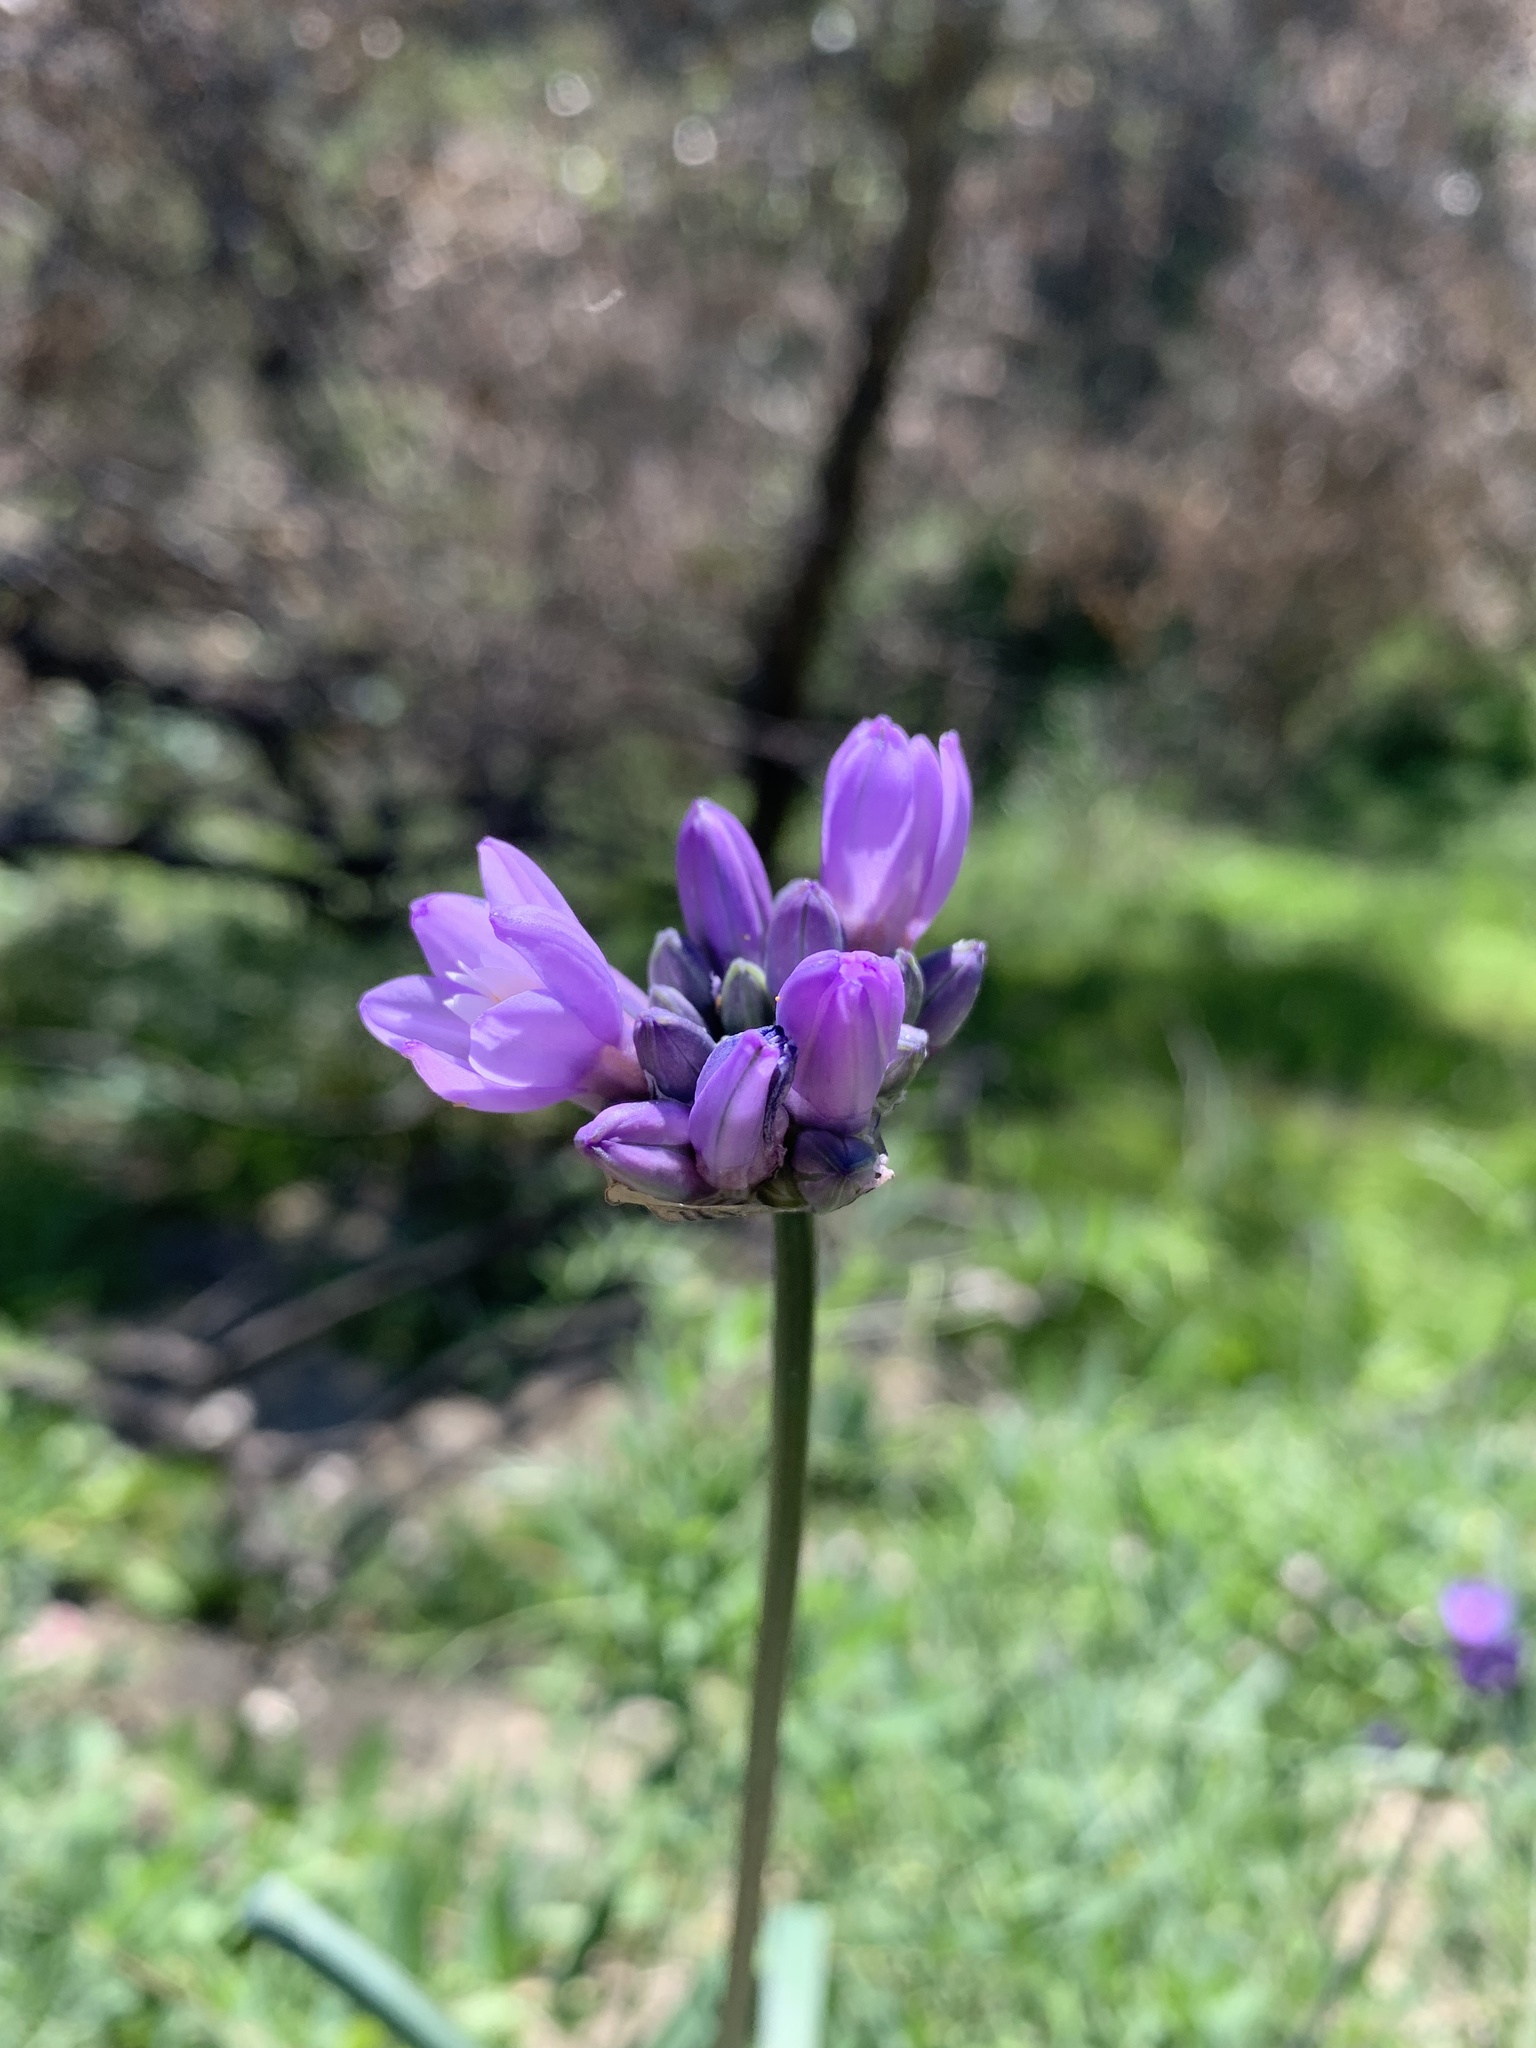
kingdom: Plantae
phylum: Tracheophyta
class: Liliopsida
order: Asparagales
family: Asparagaceae
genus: Dipterostemon
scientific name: Dipterostemon capitatus
